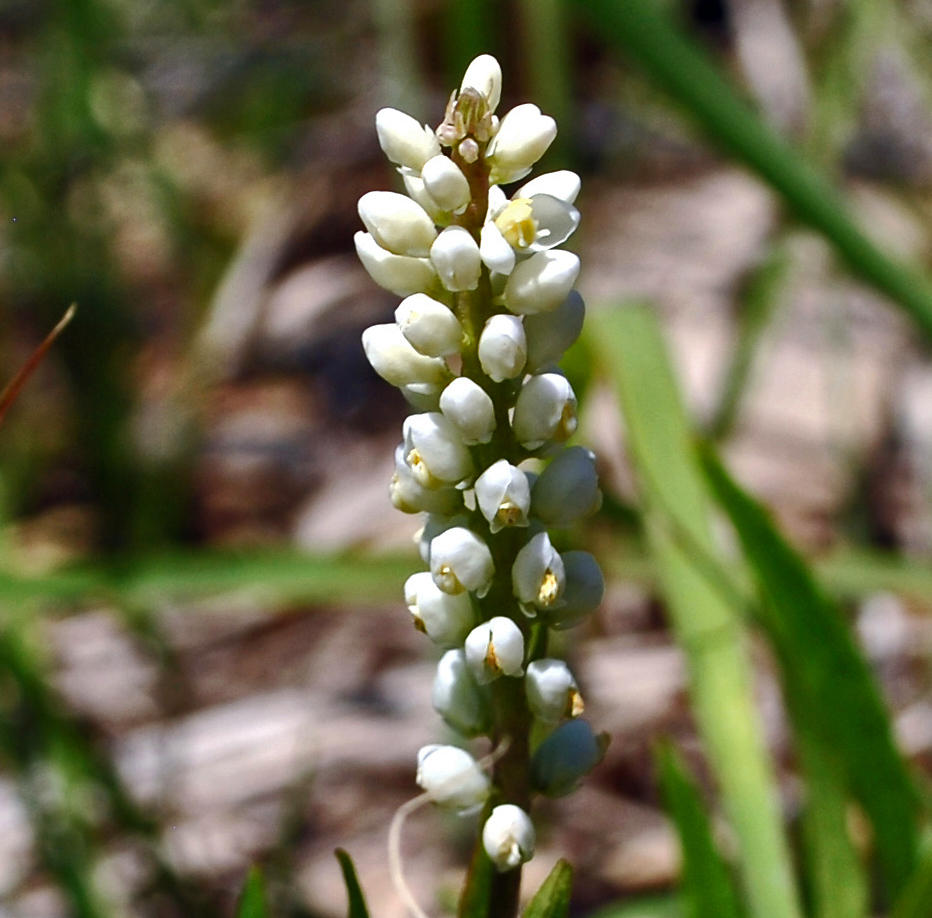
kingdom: Plantae
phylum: Tracheophyta
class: Magnoliopsida
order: Fabales
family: Polygalaceae
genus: Polygala
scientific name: Polygala senega
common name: Seneca snakeroot
